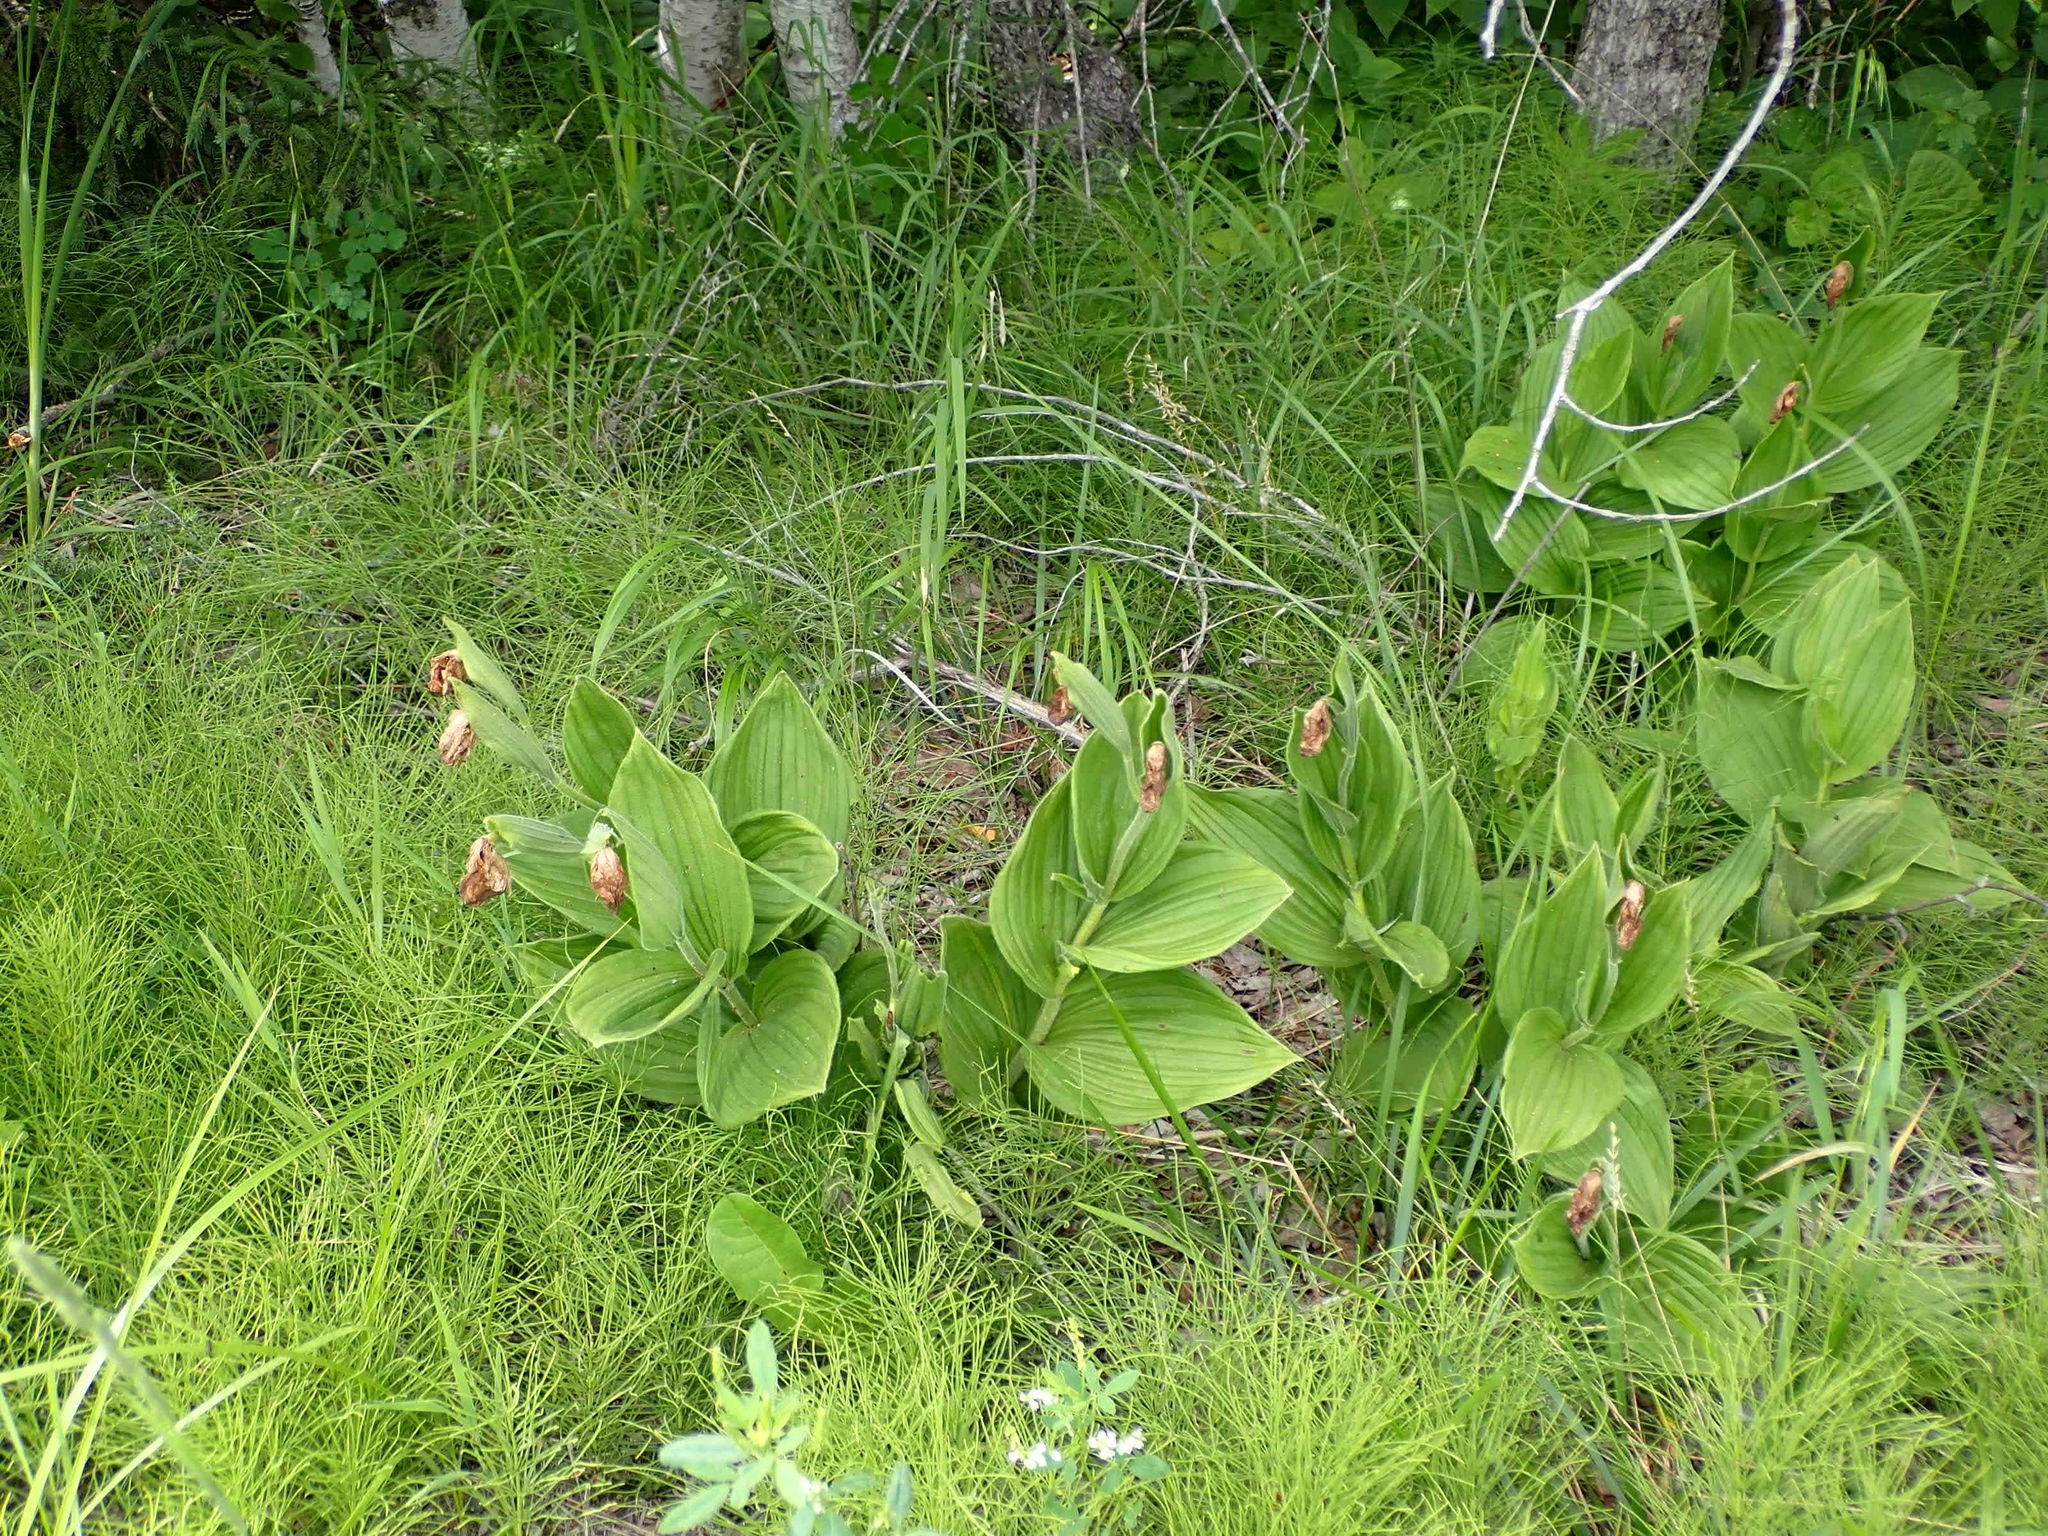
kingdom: Plantae
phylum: Tracheophyta
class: Liliopsida
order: Asparagales
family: Orchidaceae
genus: Cypripedium
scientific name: Cypripedium reginae
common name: Queen lady's-slipper
